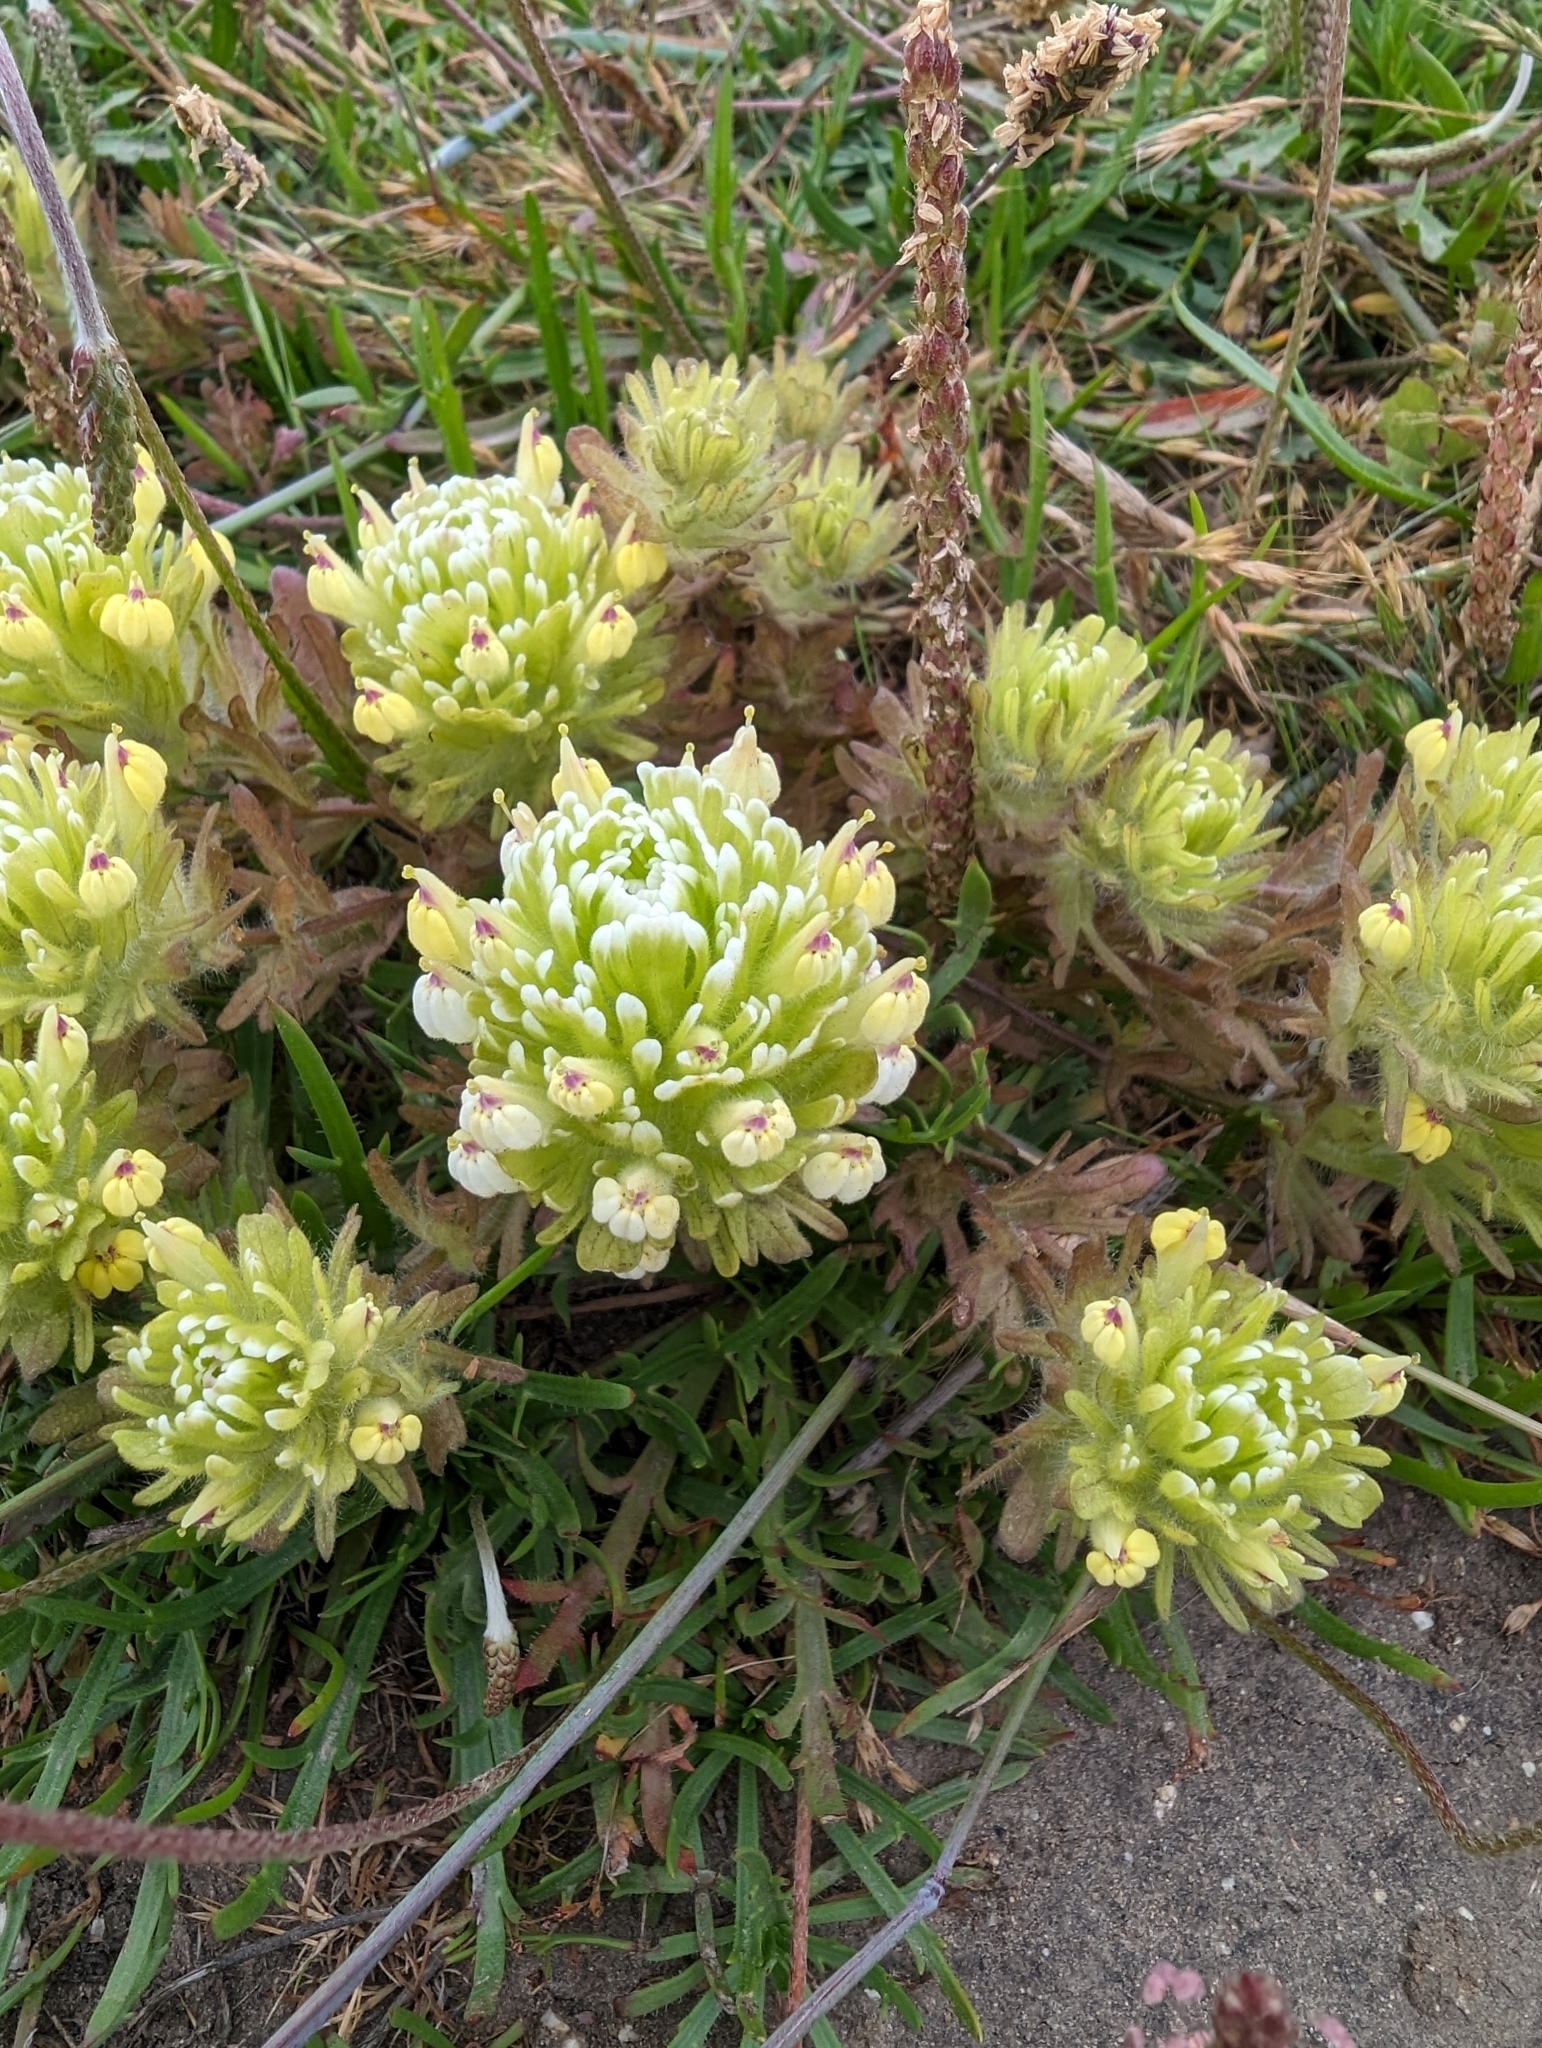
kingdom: Plantae
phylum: Tracheophyta
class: Magnoliopsida
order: Lamiales
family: Orobanchaceae
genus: Castilleja
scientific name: Castilleja ambigua
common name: Johnny-nip
